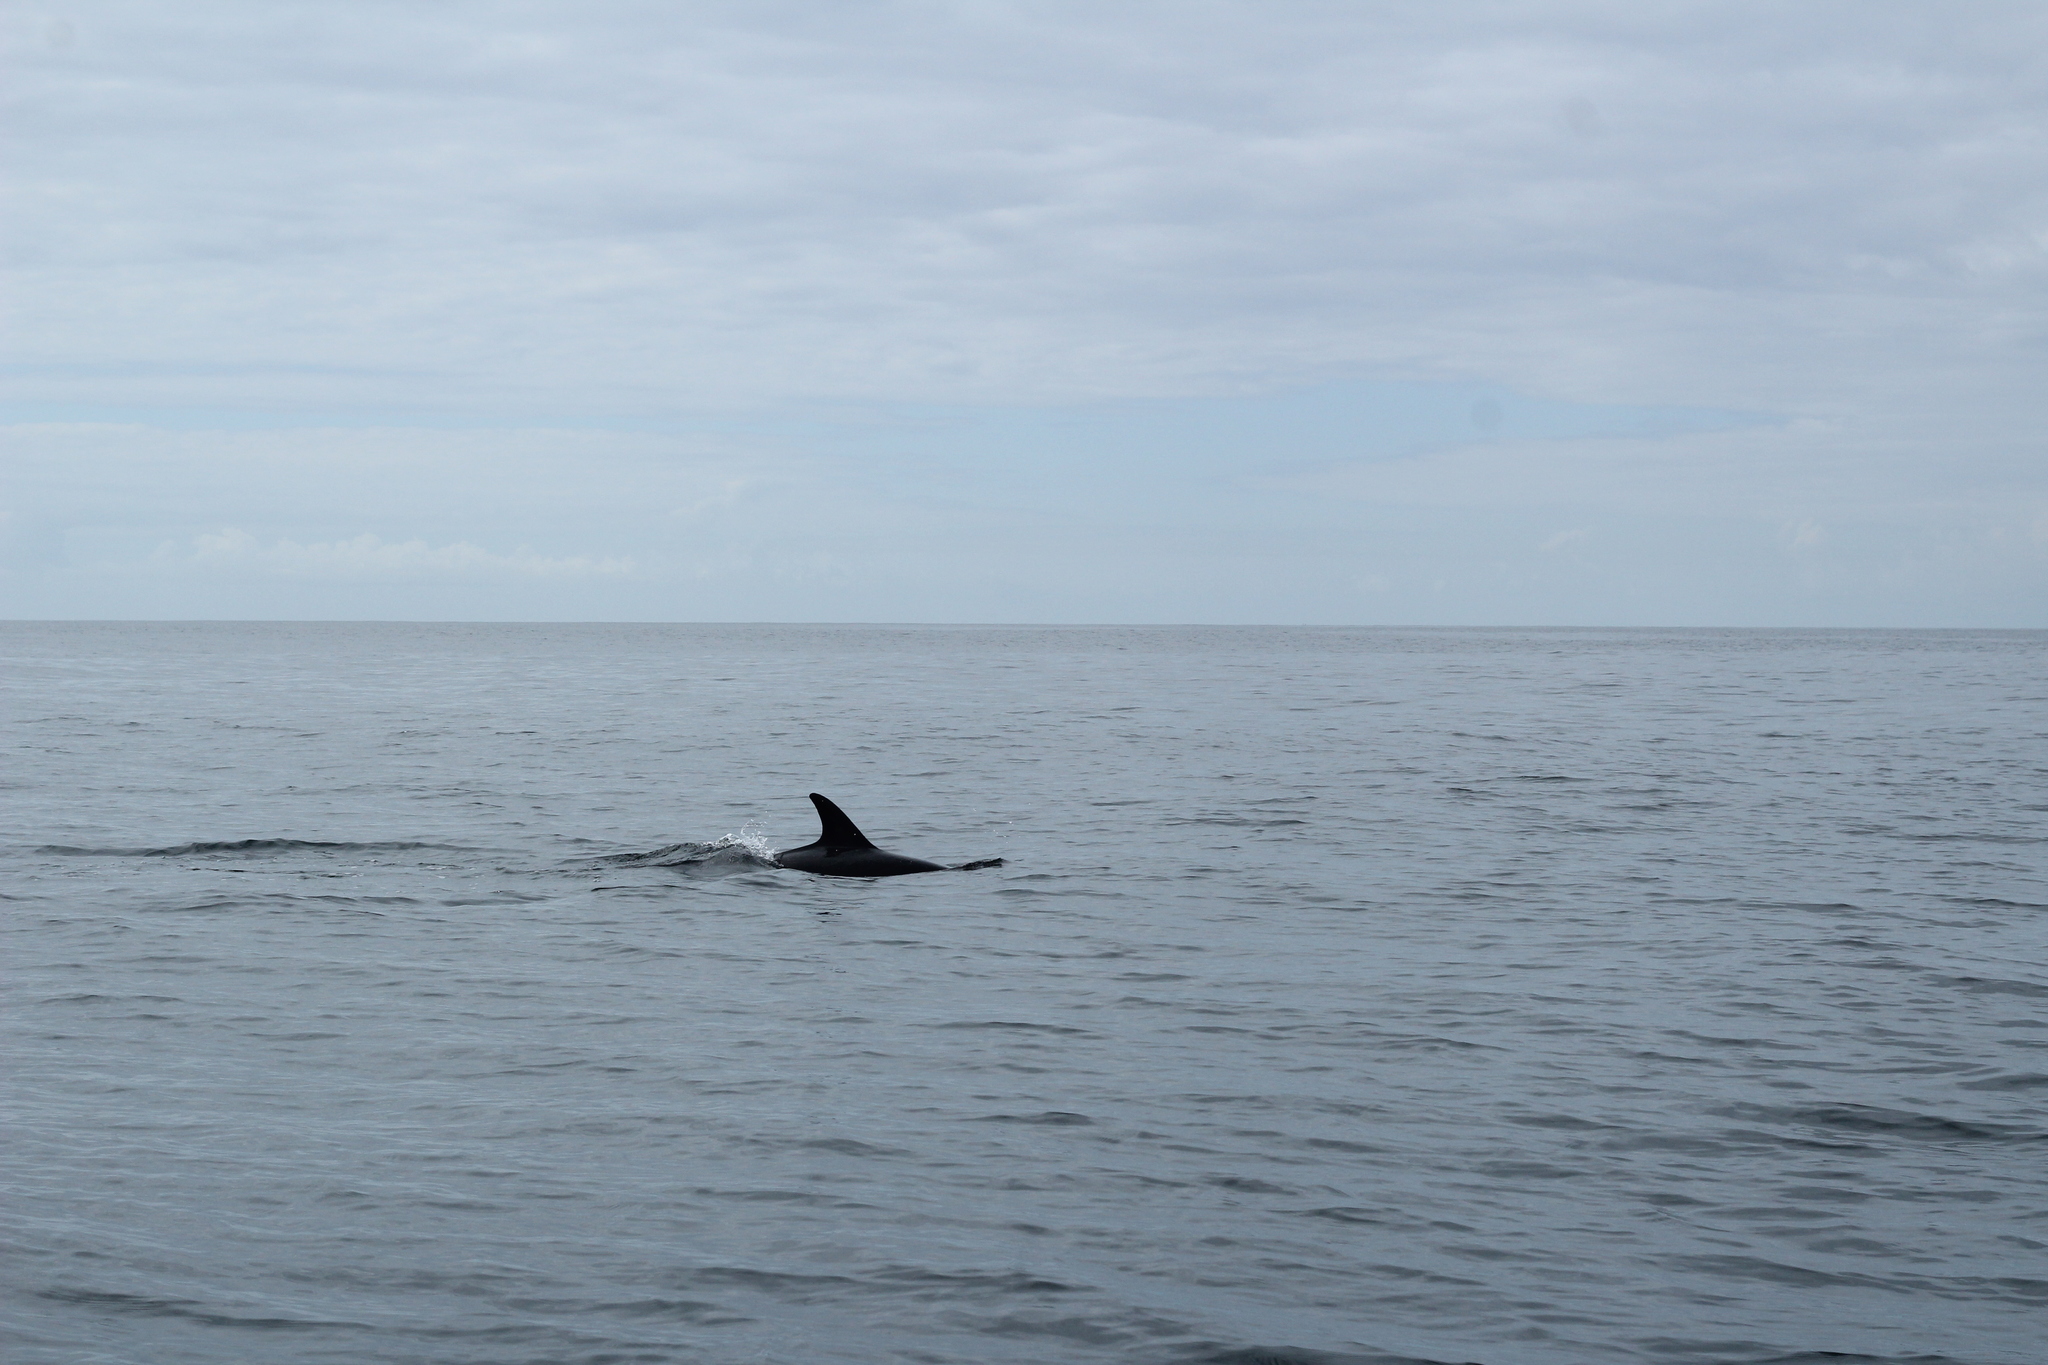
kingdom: Animalia
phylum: Chordata
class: Mammalia
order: Cetacea
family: Delphinidae
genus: Delphinus
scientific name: Delphinus delphis
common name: Common dolphin
